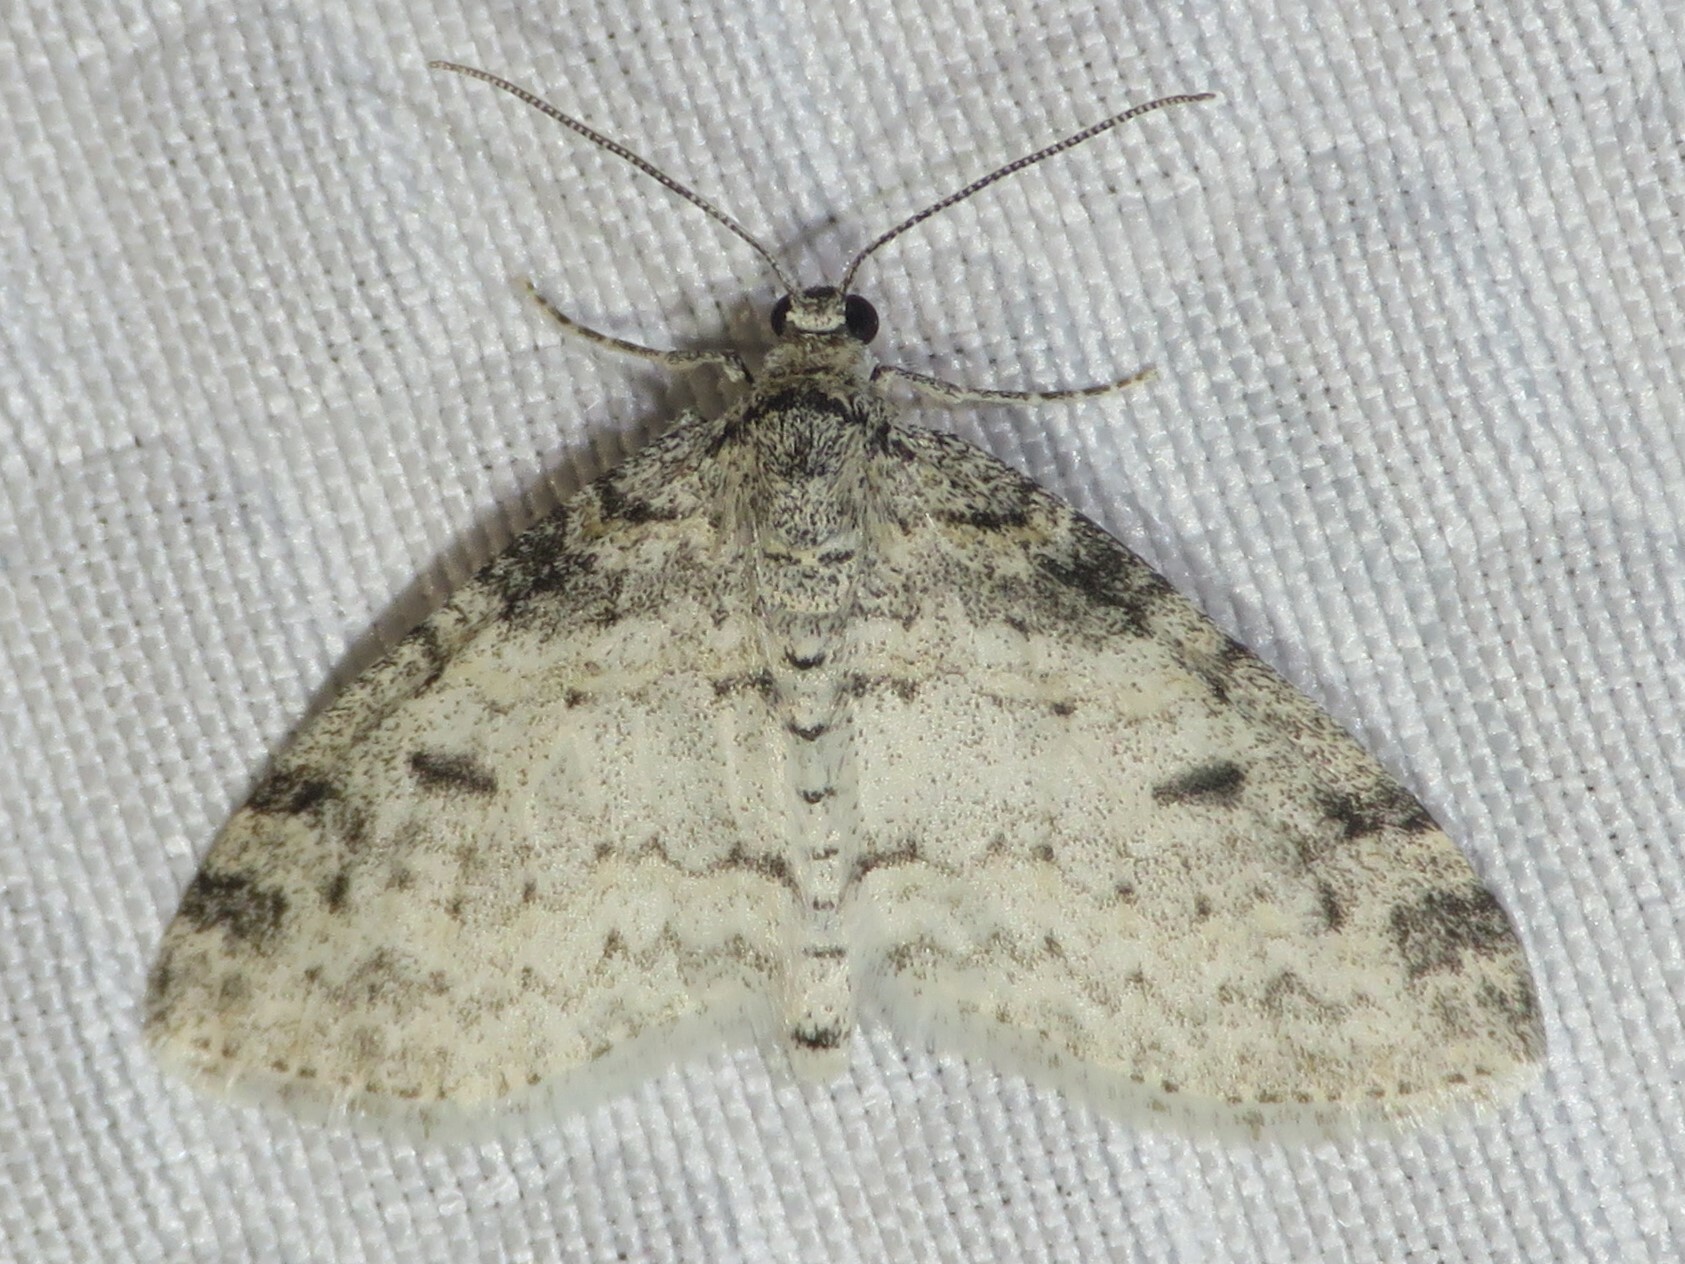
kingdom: Animalia
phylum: Arthropoda
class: Insecta
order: Lepidoptera
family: Geometridae
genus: Lobophora
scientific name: Lobophora nivigerata
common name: Powdered bigwing
